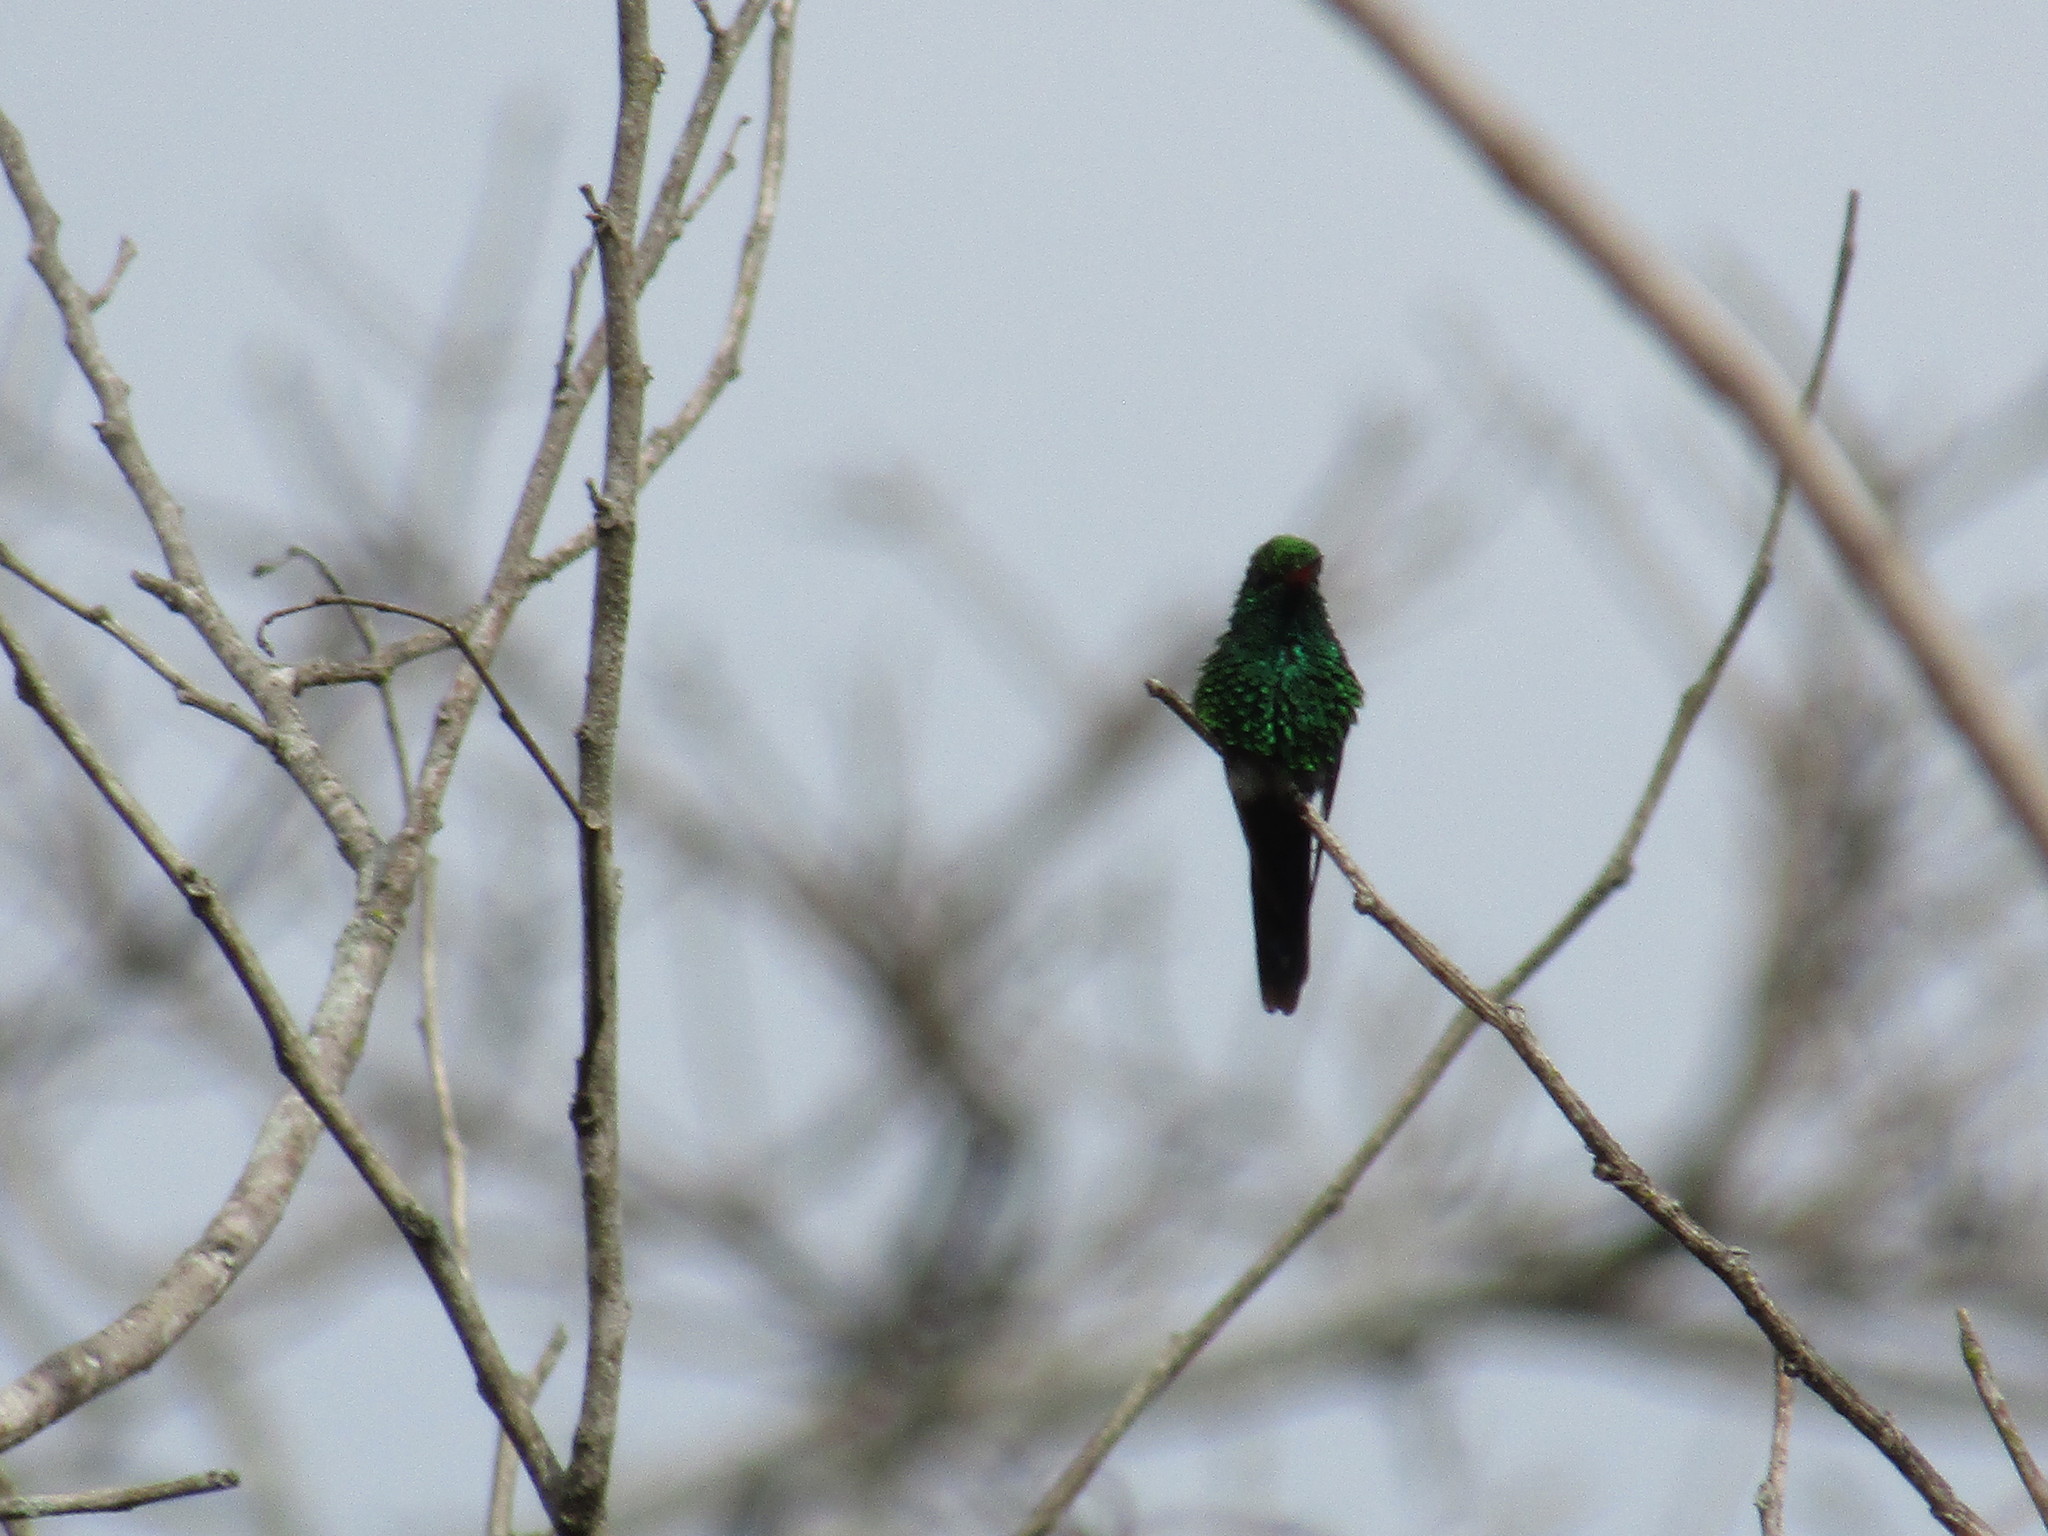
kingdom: Animalia
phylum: Chordata
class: Aves
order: Apodiformes
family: Trochilidae
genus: Cynanthus
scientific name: Cynanthus canivetii
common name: Canivet's emerald
